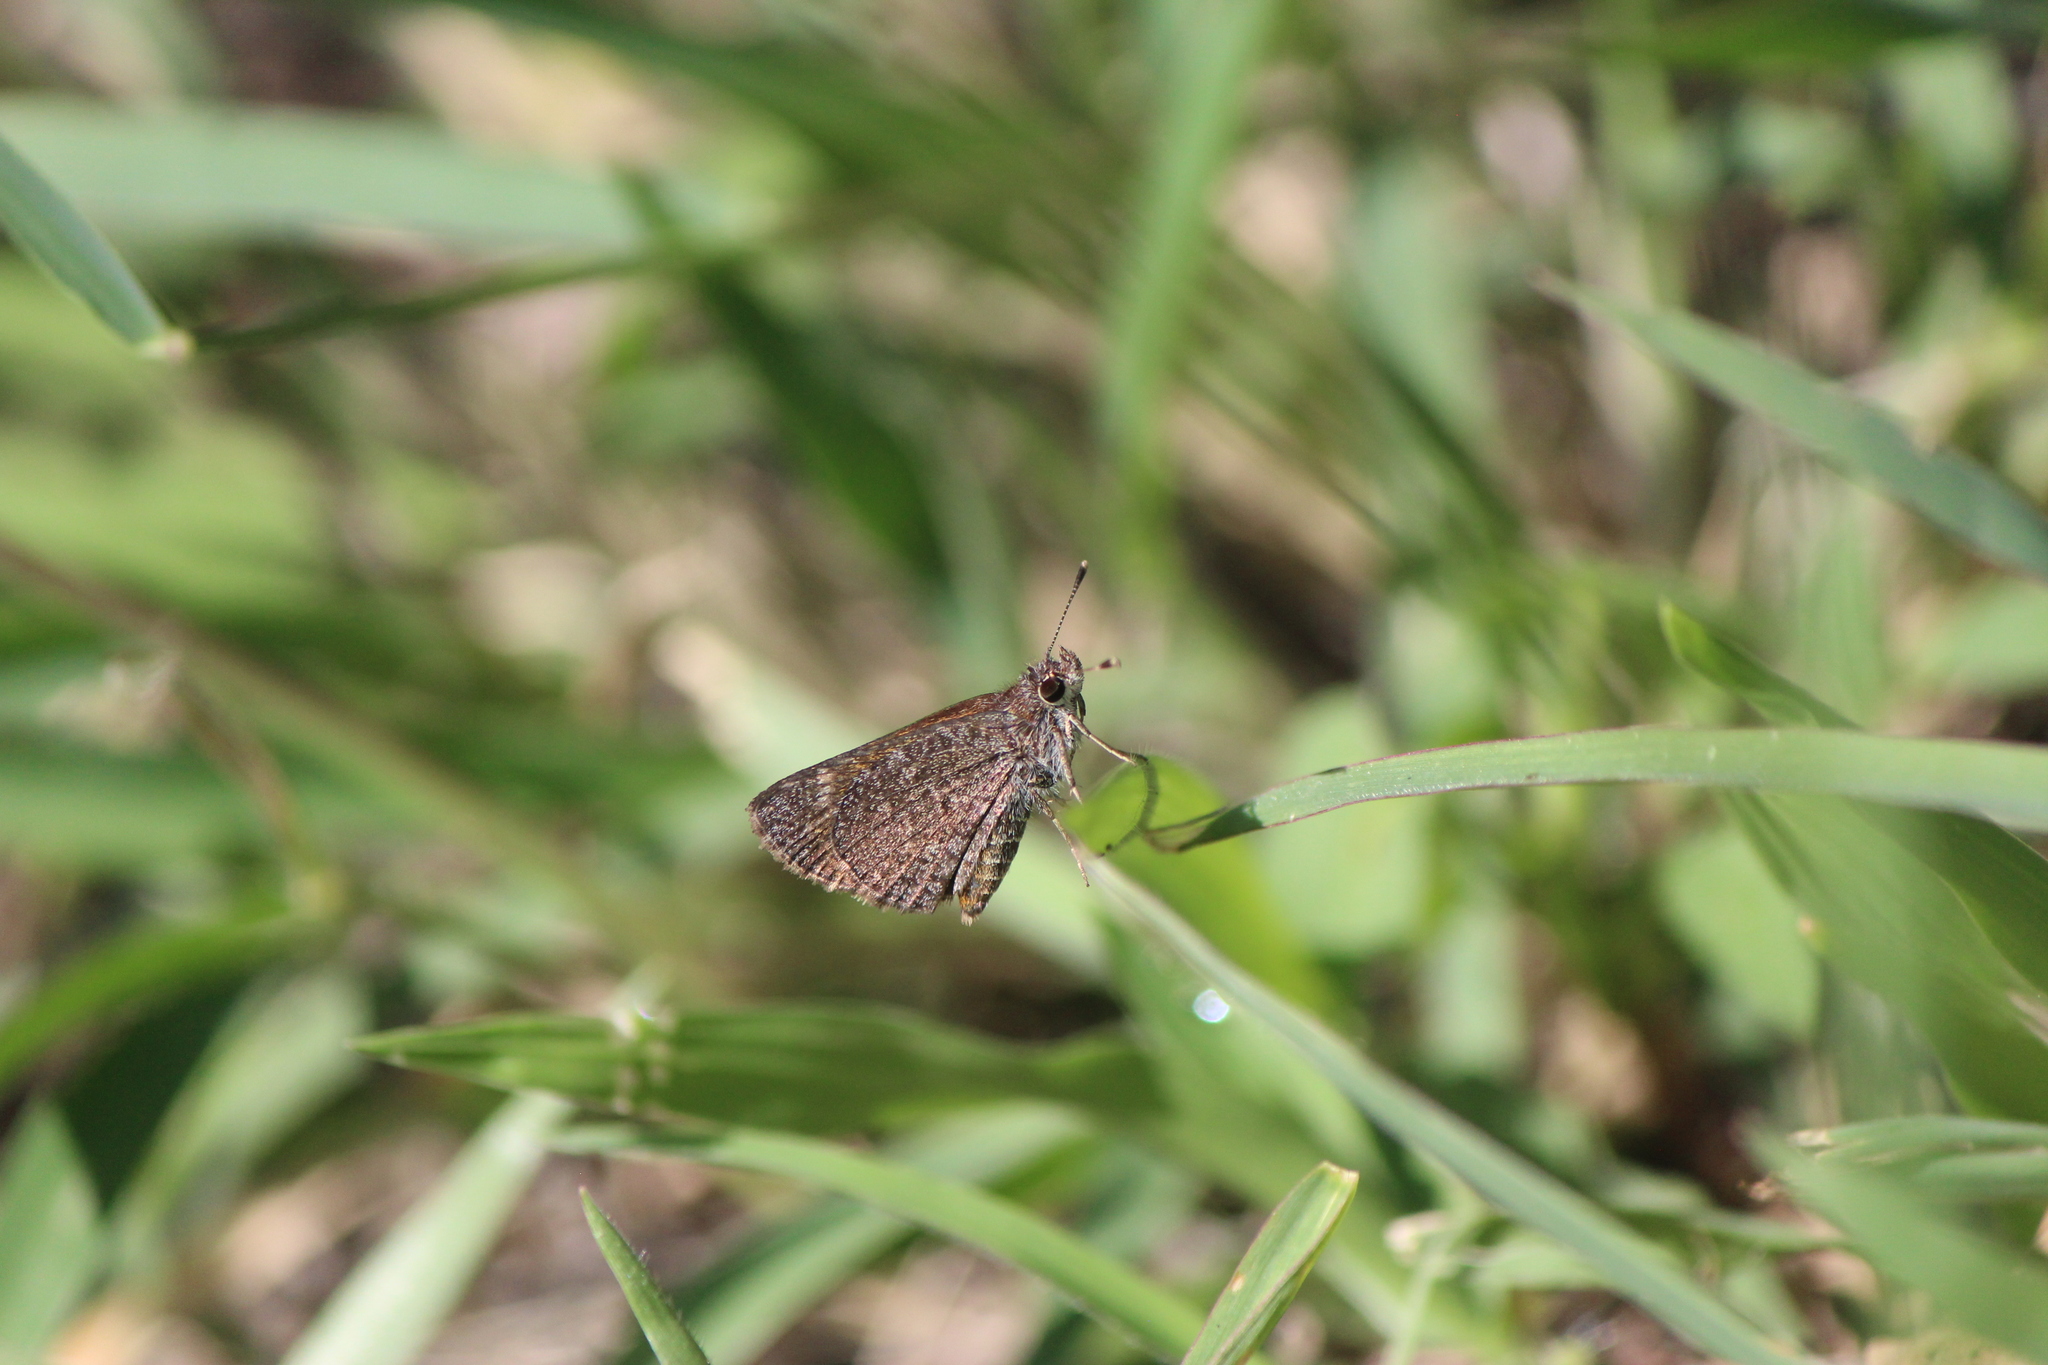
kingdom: Animalia
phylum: Arthropoda
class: Insecta
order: Lepidoptera
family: Hesperiidae
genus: Mastor
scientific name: Mastor fluonia
